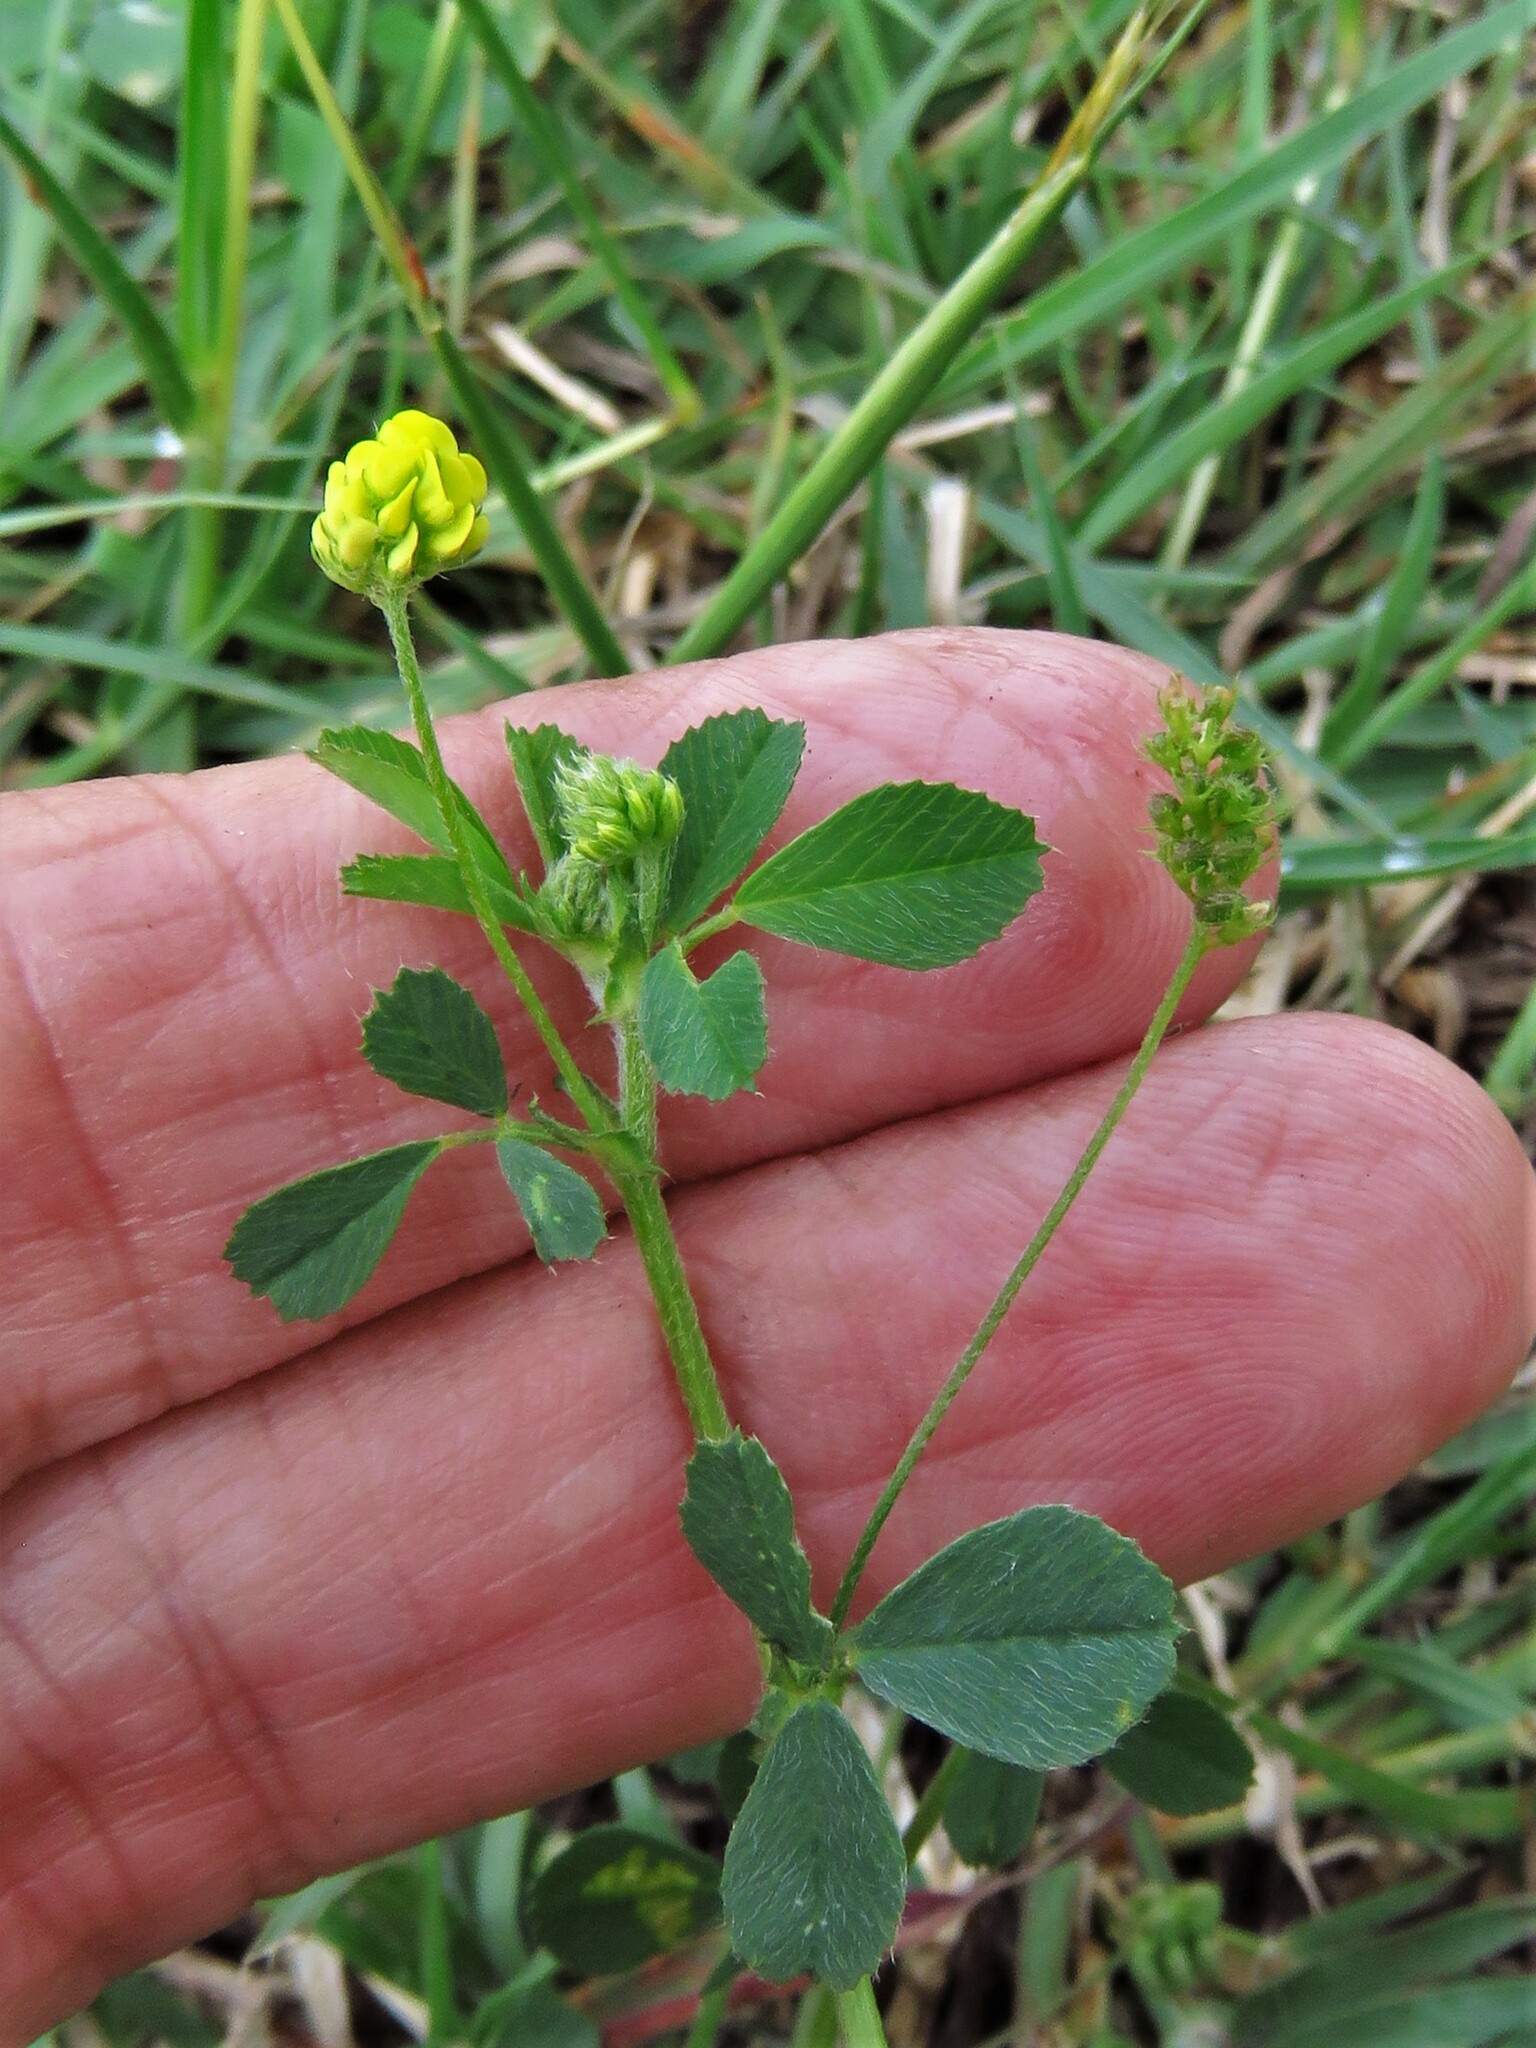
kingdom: Plantae
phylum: Tracheophyta
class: Magnoliopsida
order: Fabales
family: Fabaceae
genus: Medicago
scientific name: Medicago lupulina
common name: Black medick
